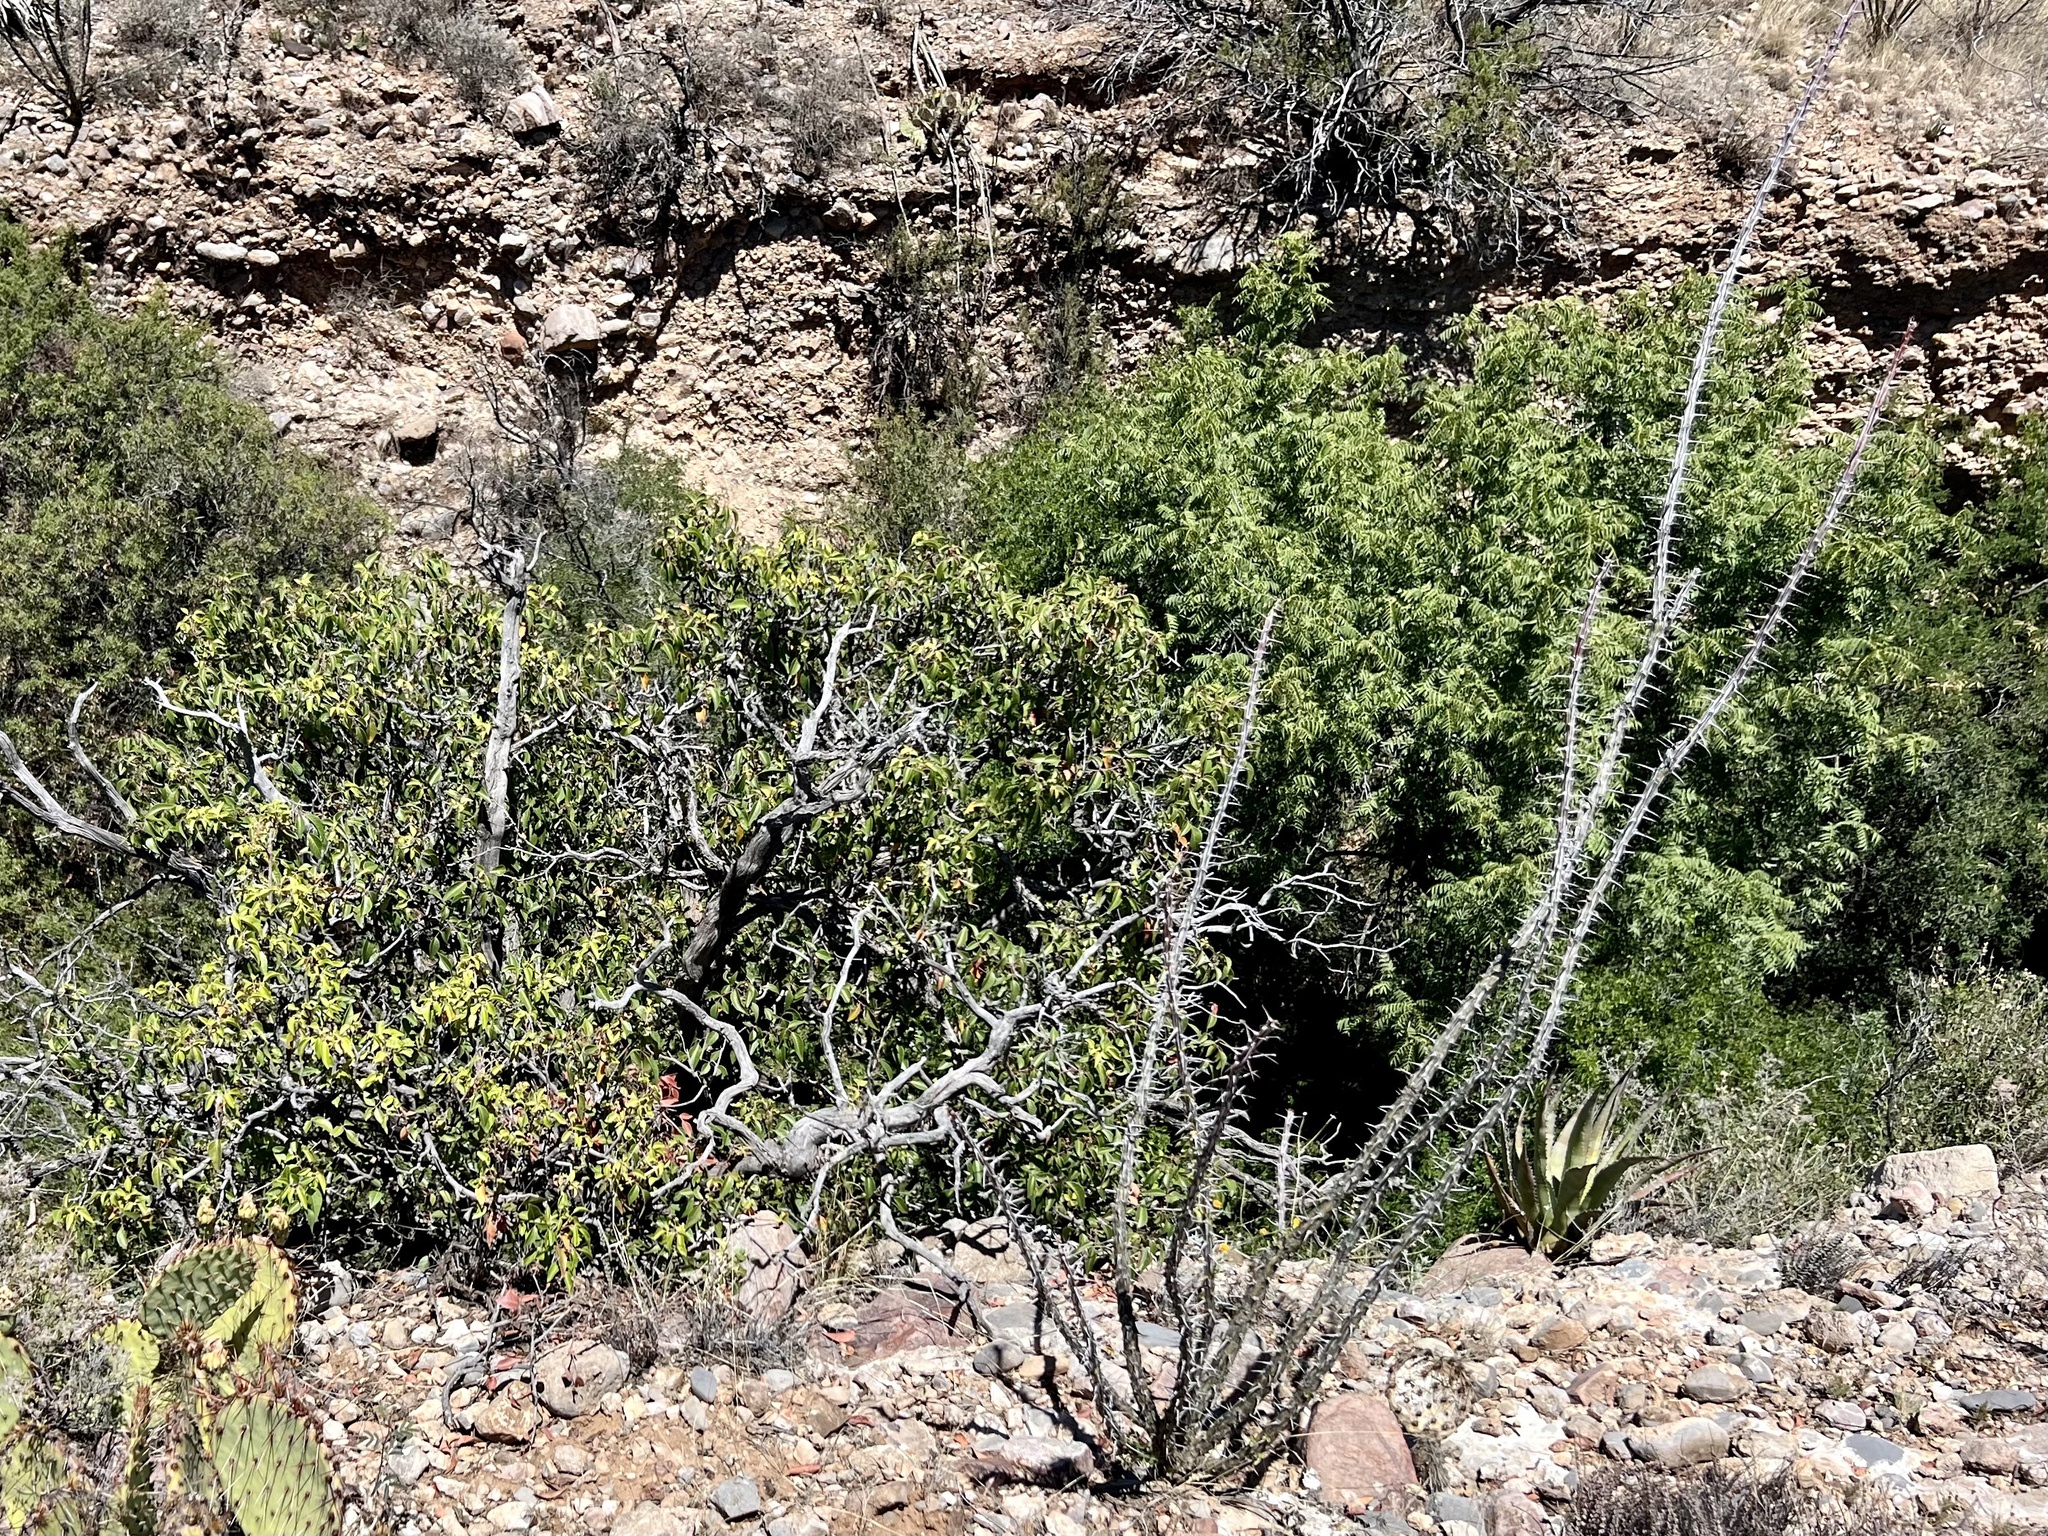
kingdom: Plantae
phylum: Tracheophyta
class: Magnoliopsida
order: Ericales
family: Fouquieriaceae
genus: Fouquieria
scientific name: Fouquieria splendens
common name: Vine-cactus
